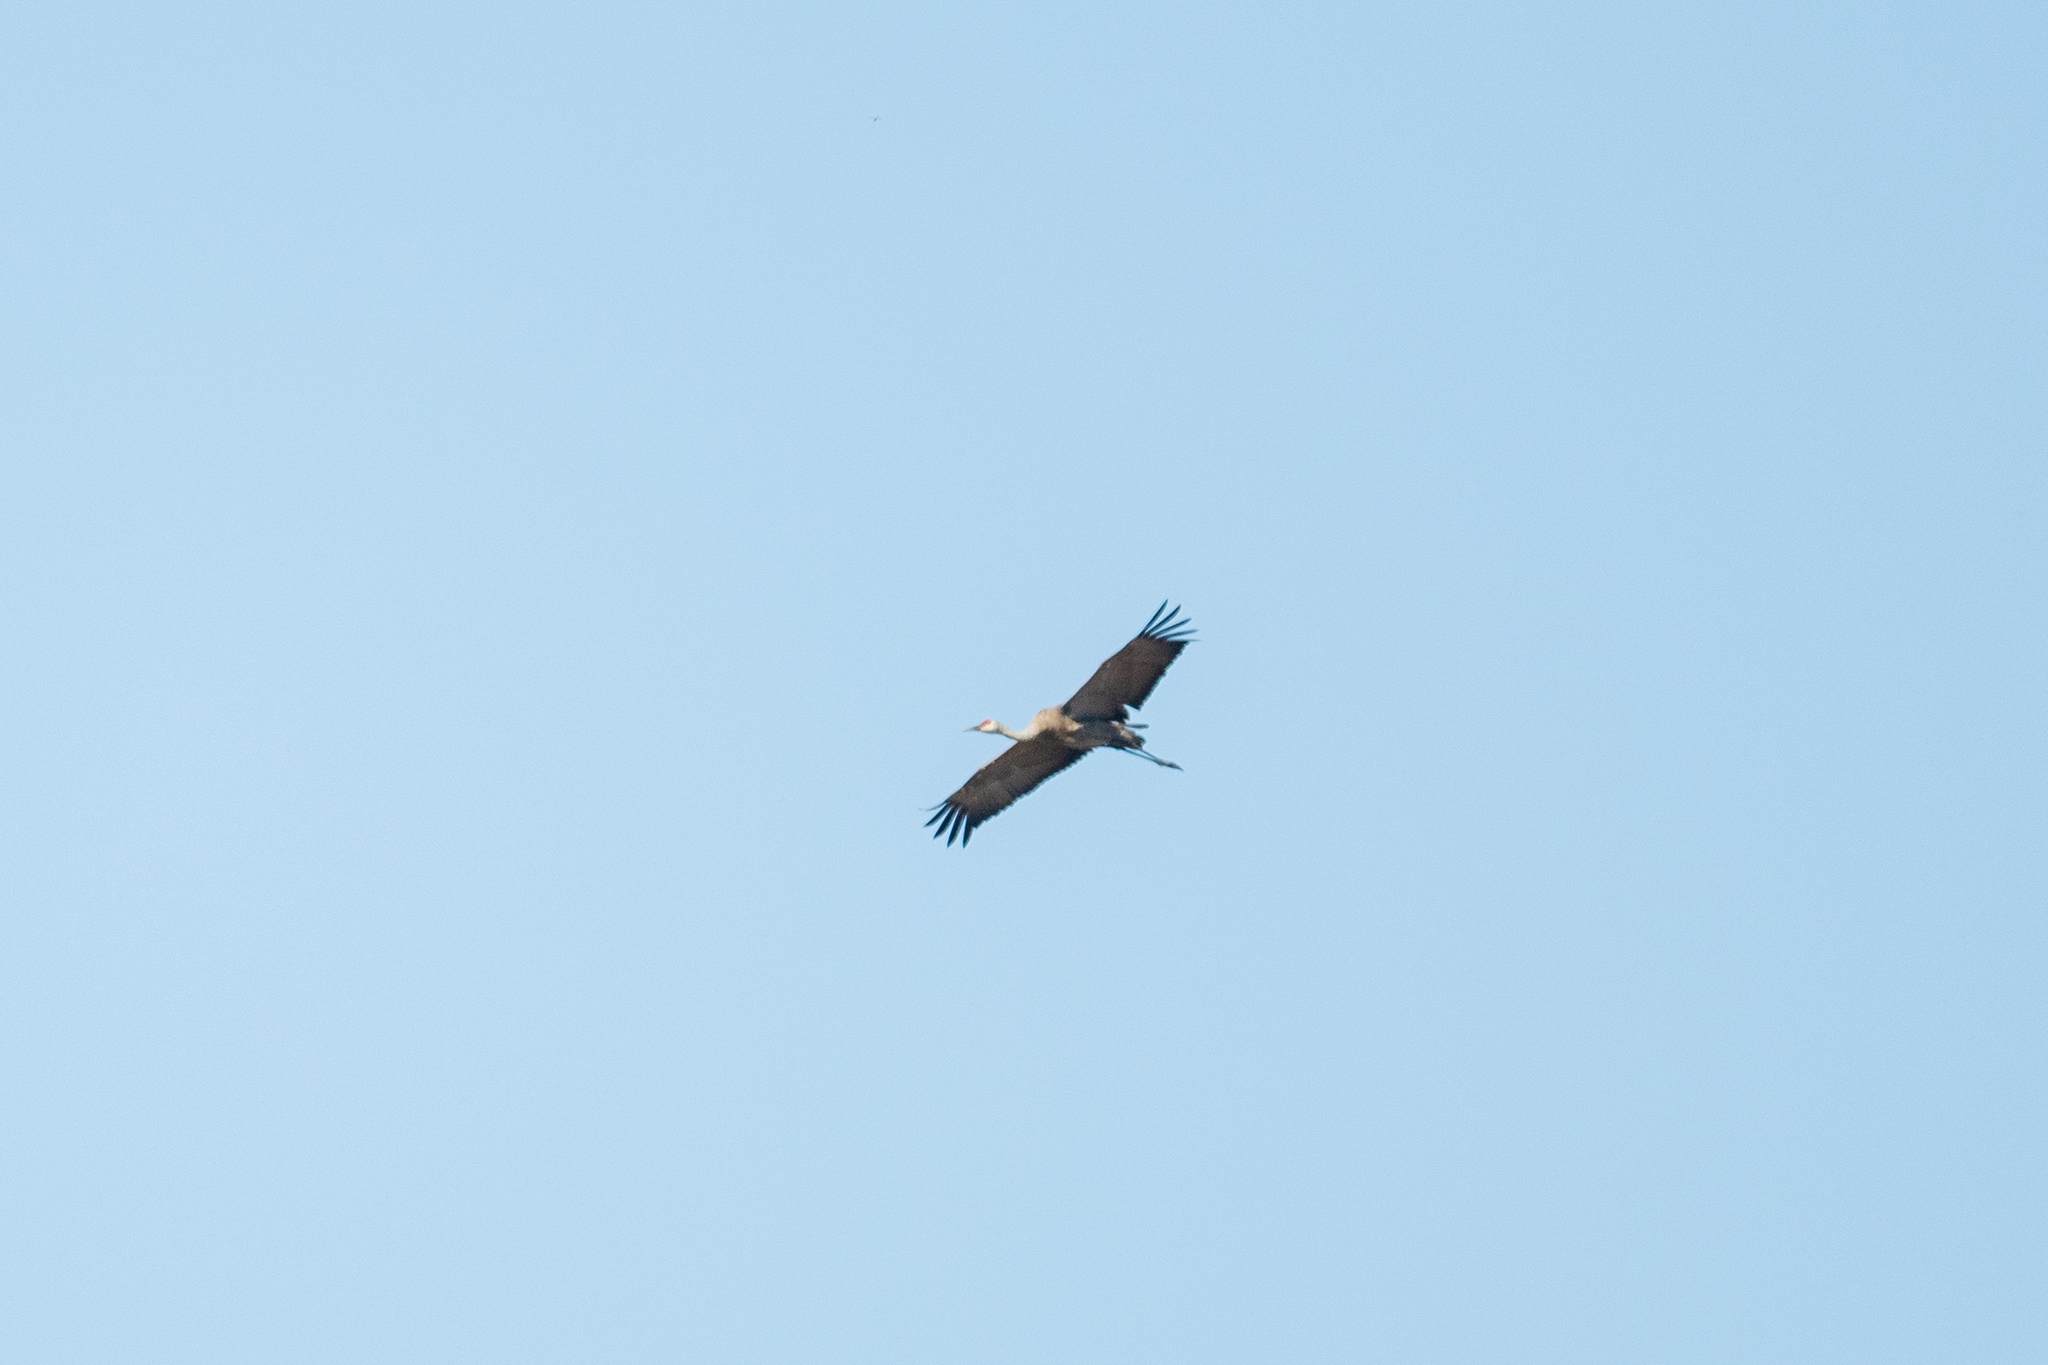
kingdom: Animalia
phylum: Chordata
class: Aves
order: Gruiformes
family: Gruidae
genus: Grus
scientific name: Grus canadensis
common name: Sandhill crane
